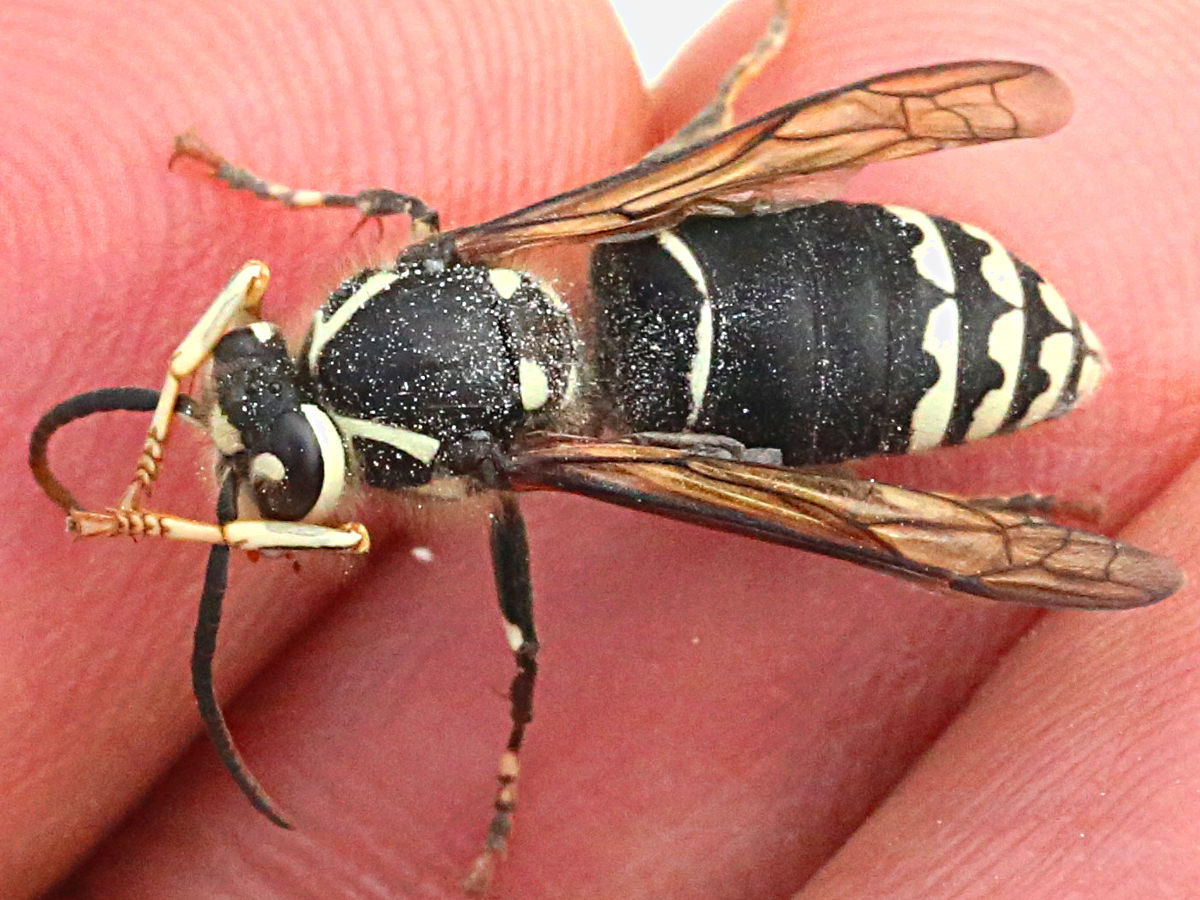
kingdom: Animalia
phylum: Arthropoda
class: Insecta
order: Hymenoptera
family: Vespidae
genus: Dolichovespula
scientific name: Dolichovespula maculata
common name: Bald-faced hornet
